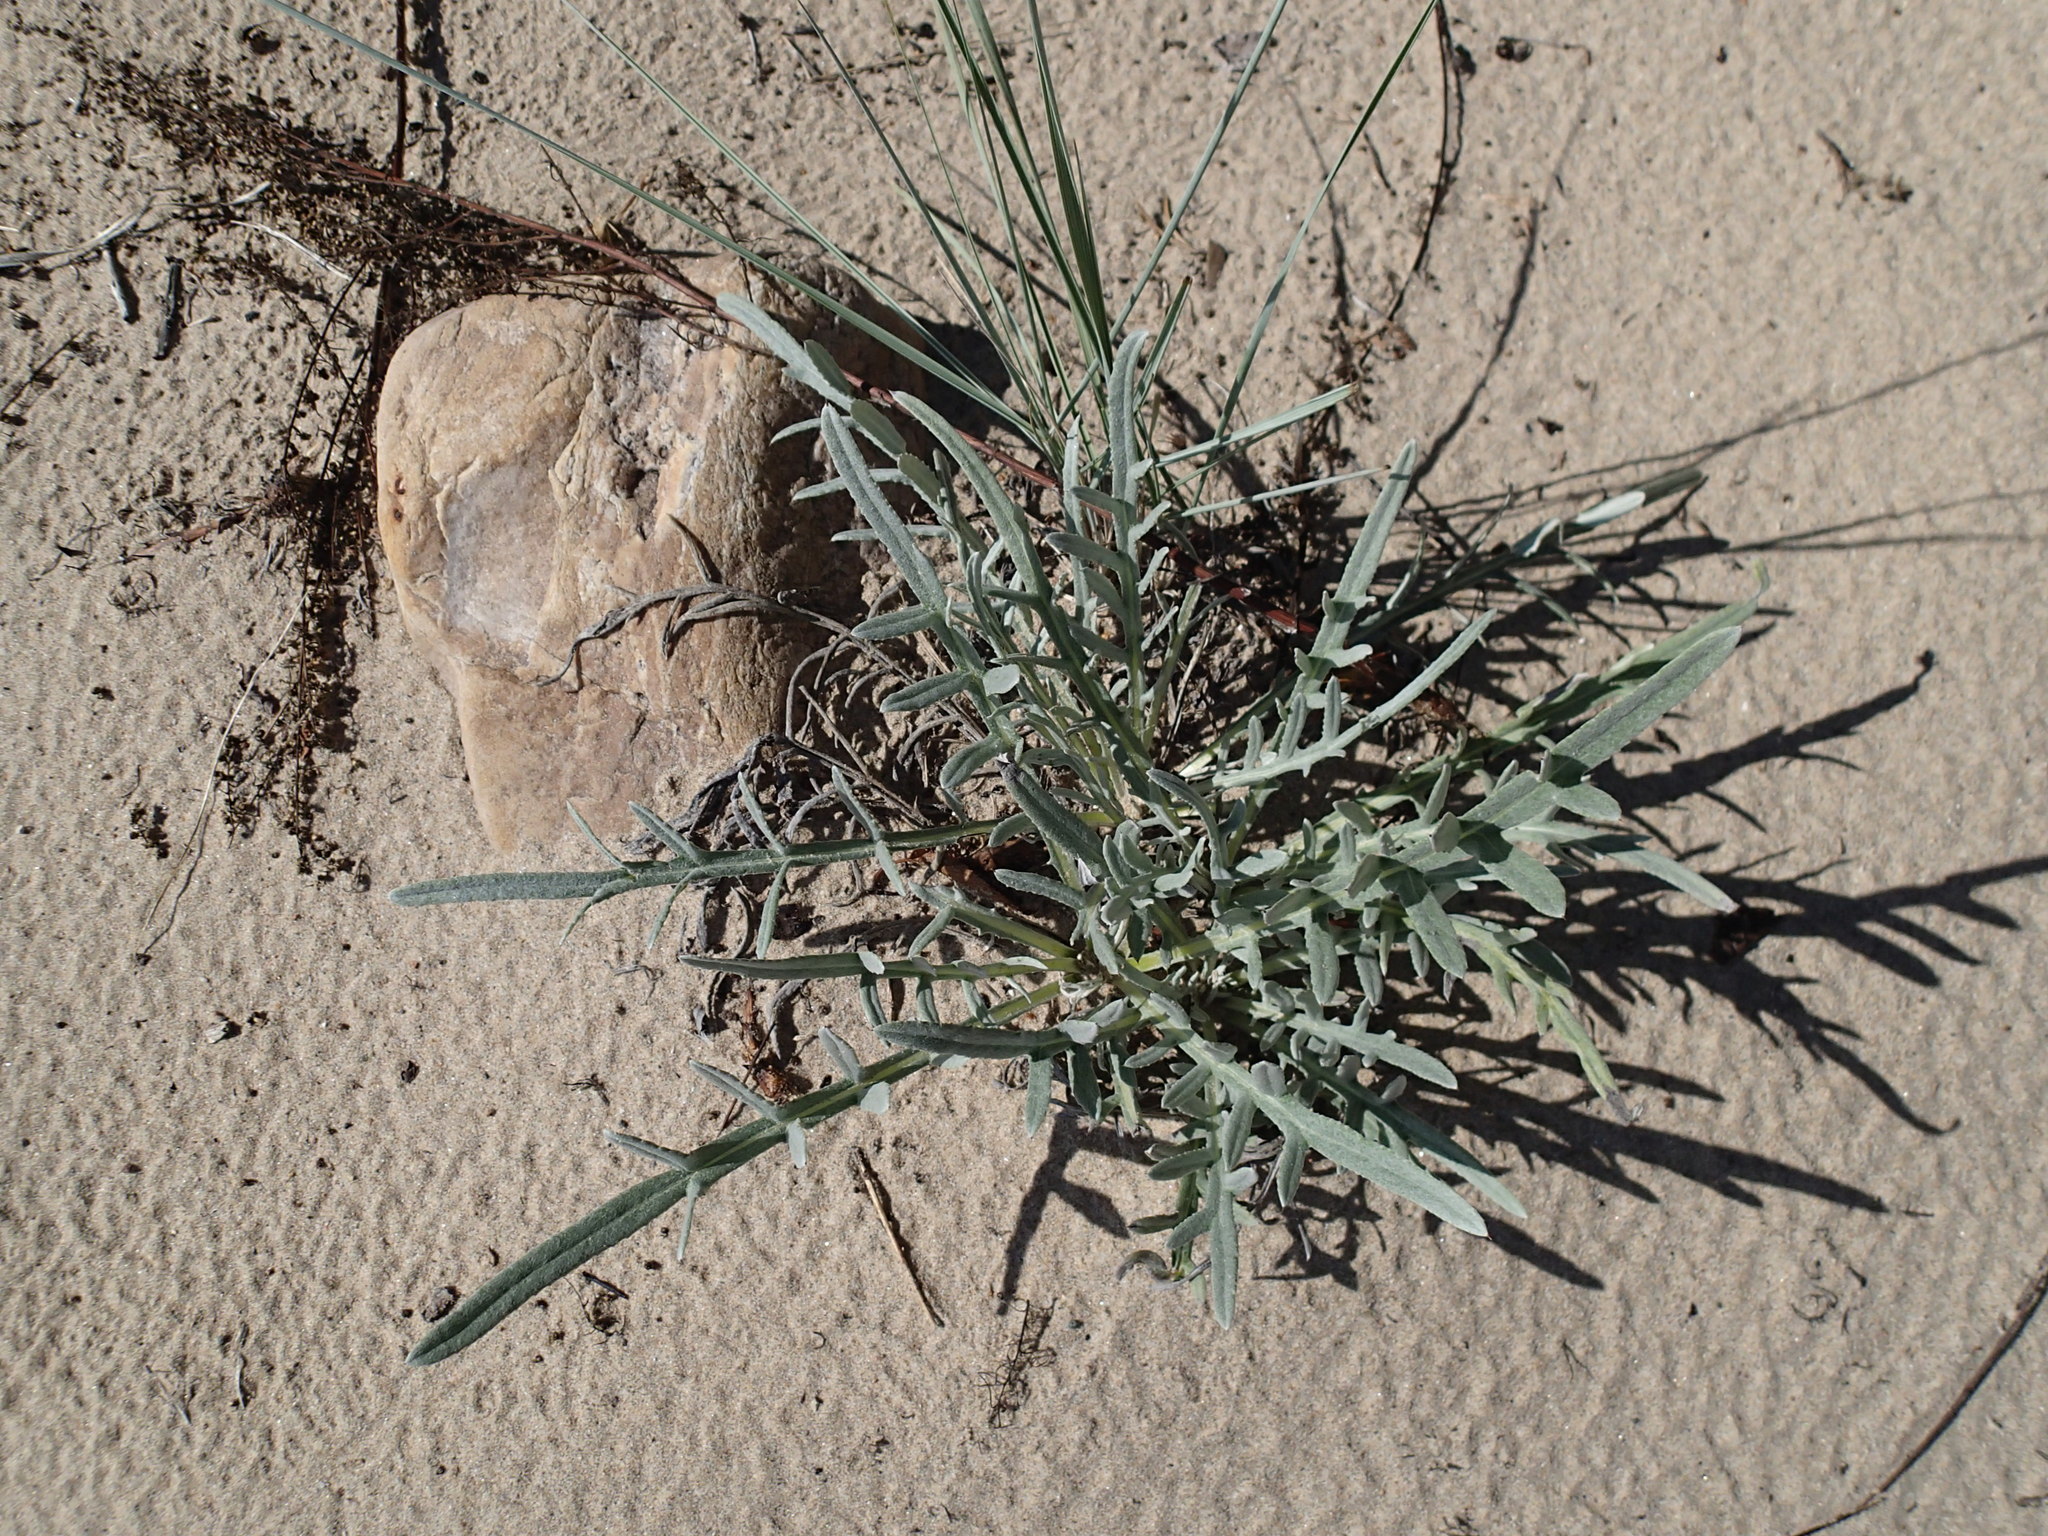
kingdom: Plantae
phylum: Tracheophyta
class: Magnoliopsida
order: Asterales
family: Asteraceae
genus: Cirsium
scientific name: Cirsium pitcheri
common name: Dune thistle
